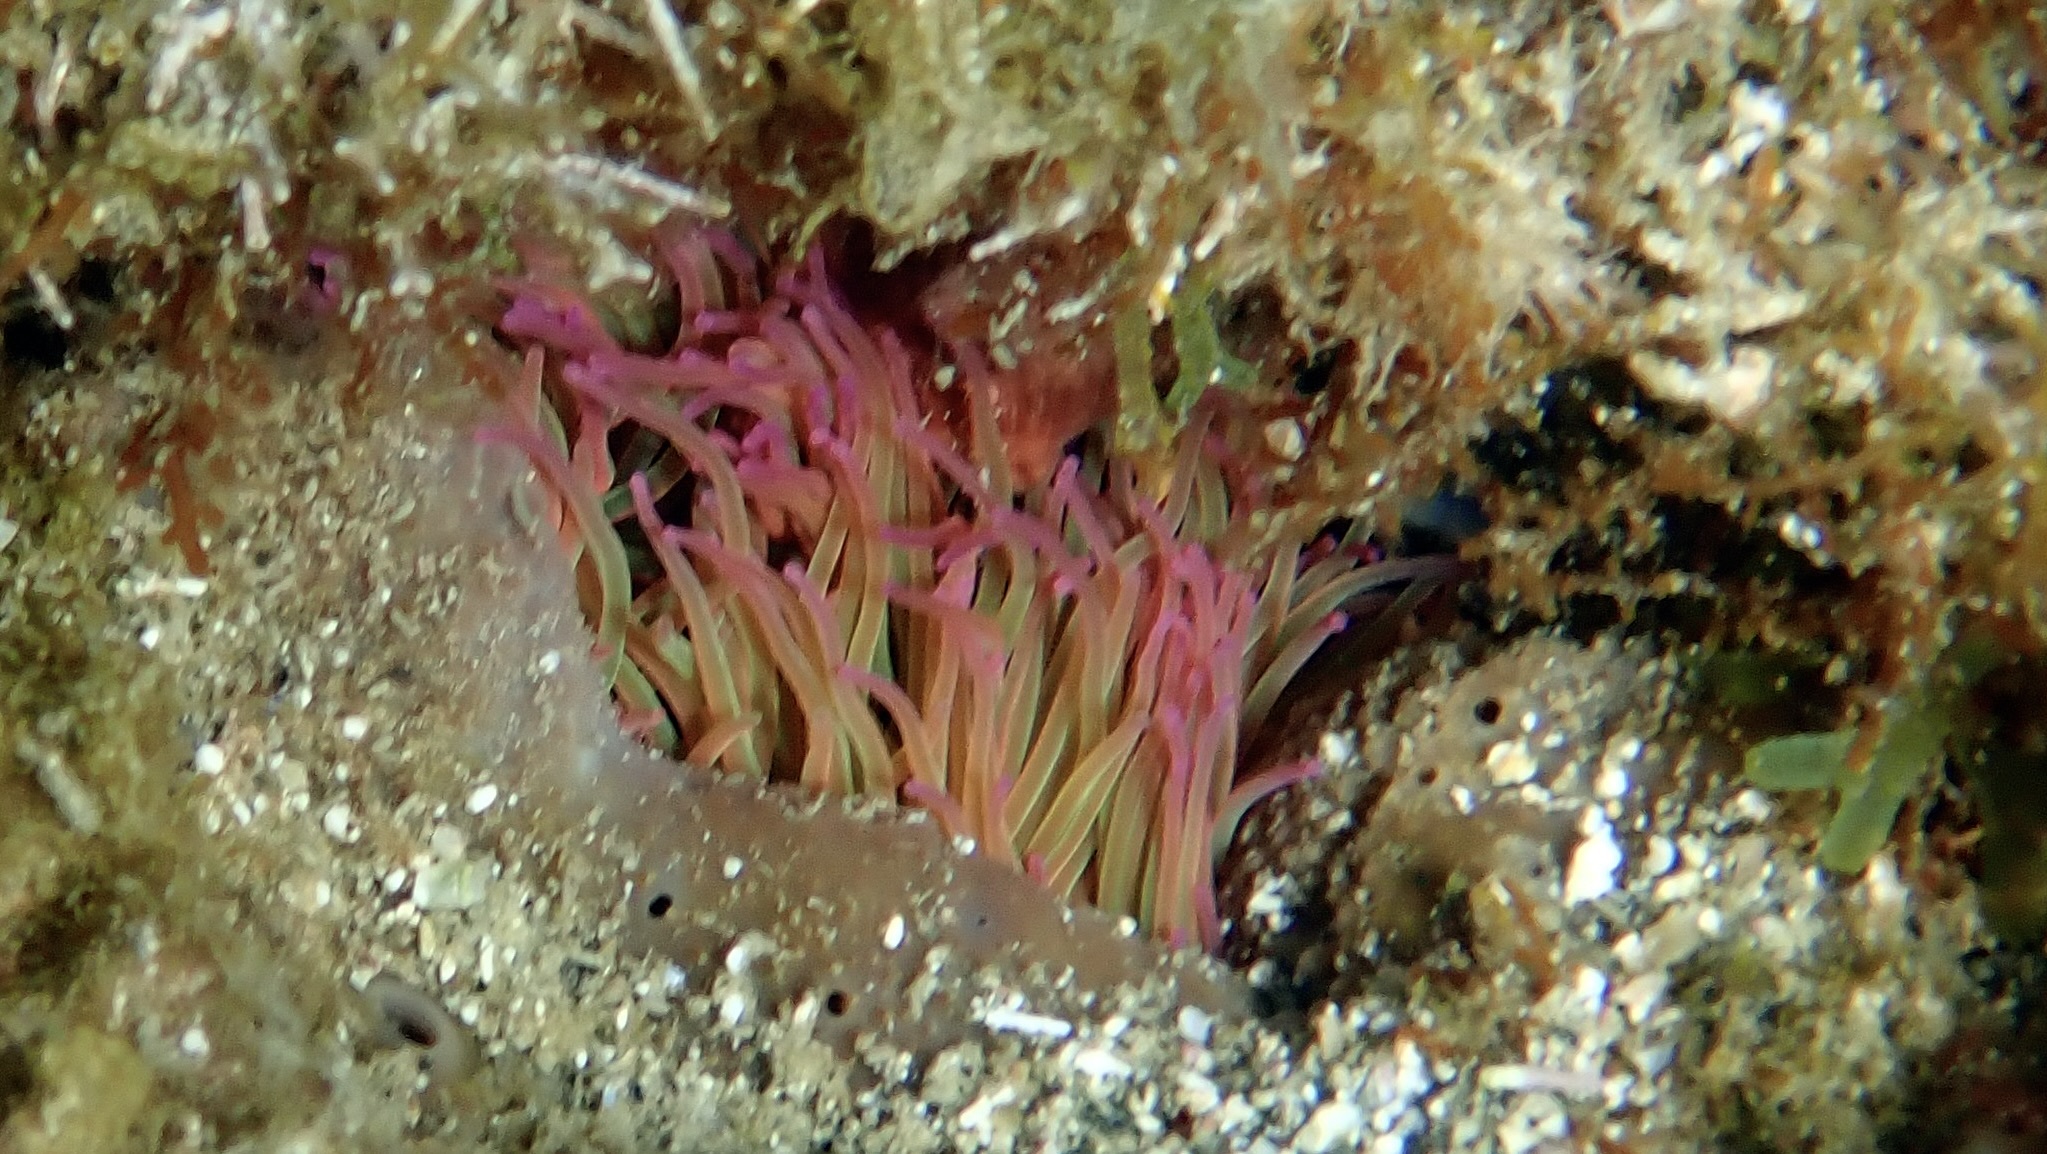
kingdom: Animalia
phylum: Cnidaria
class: Anthozoa
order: Actiniaria
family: Actiniidae
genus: Anemonia
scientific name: Anemonia viridis
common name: Snakelocks anemone
